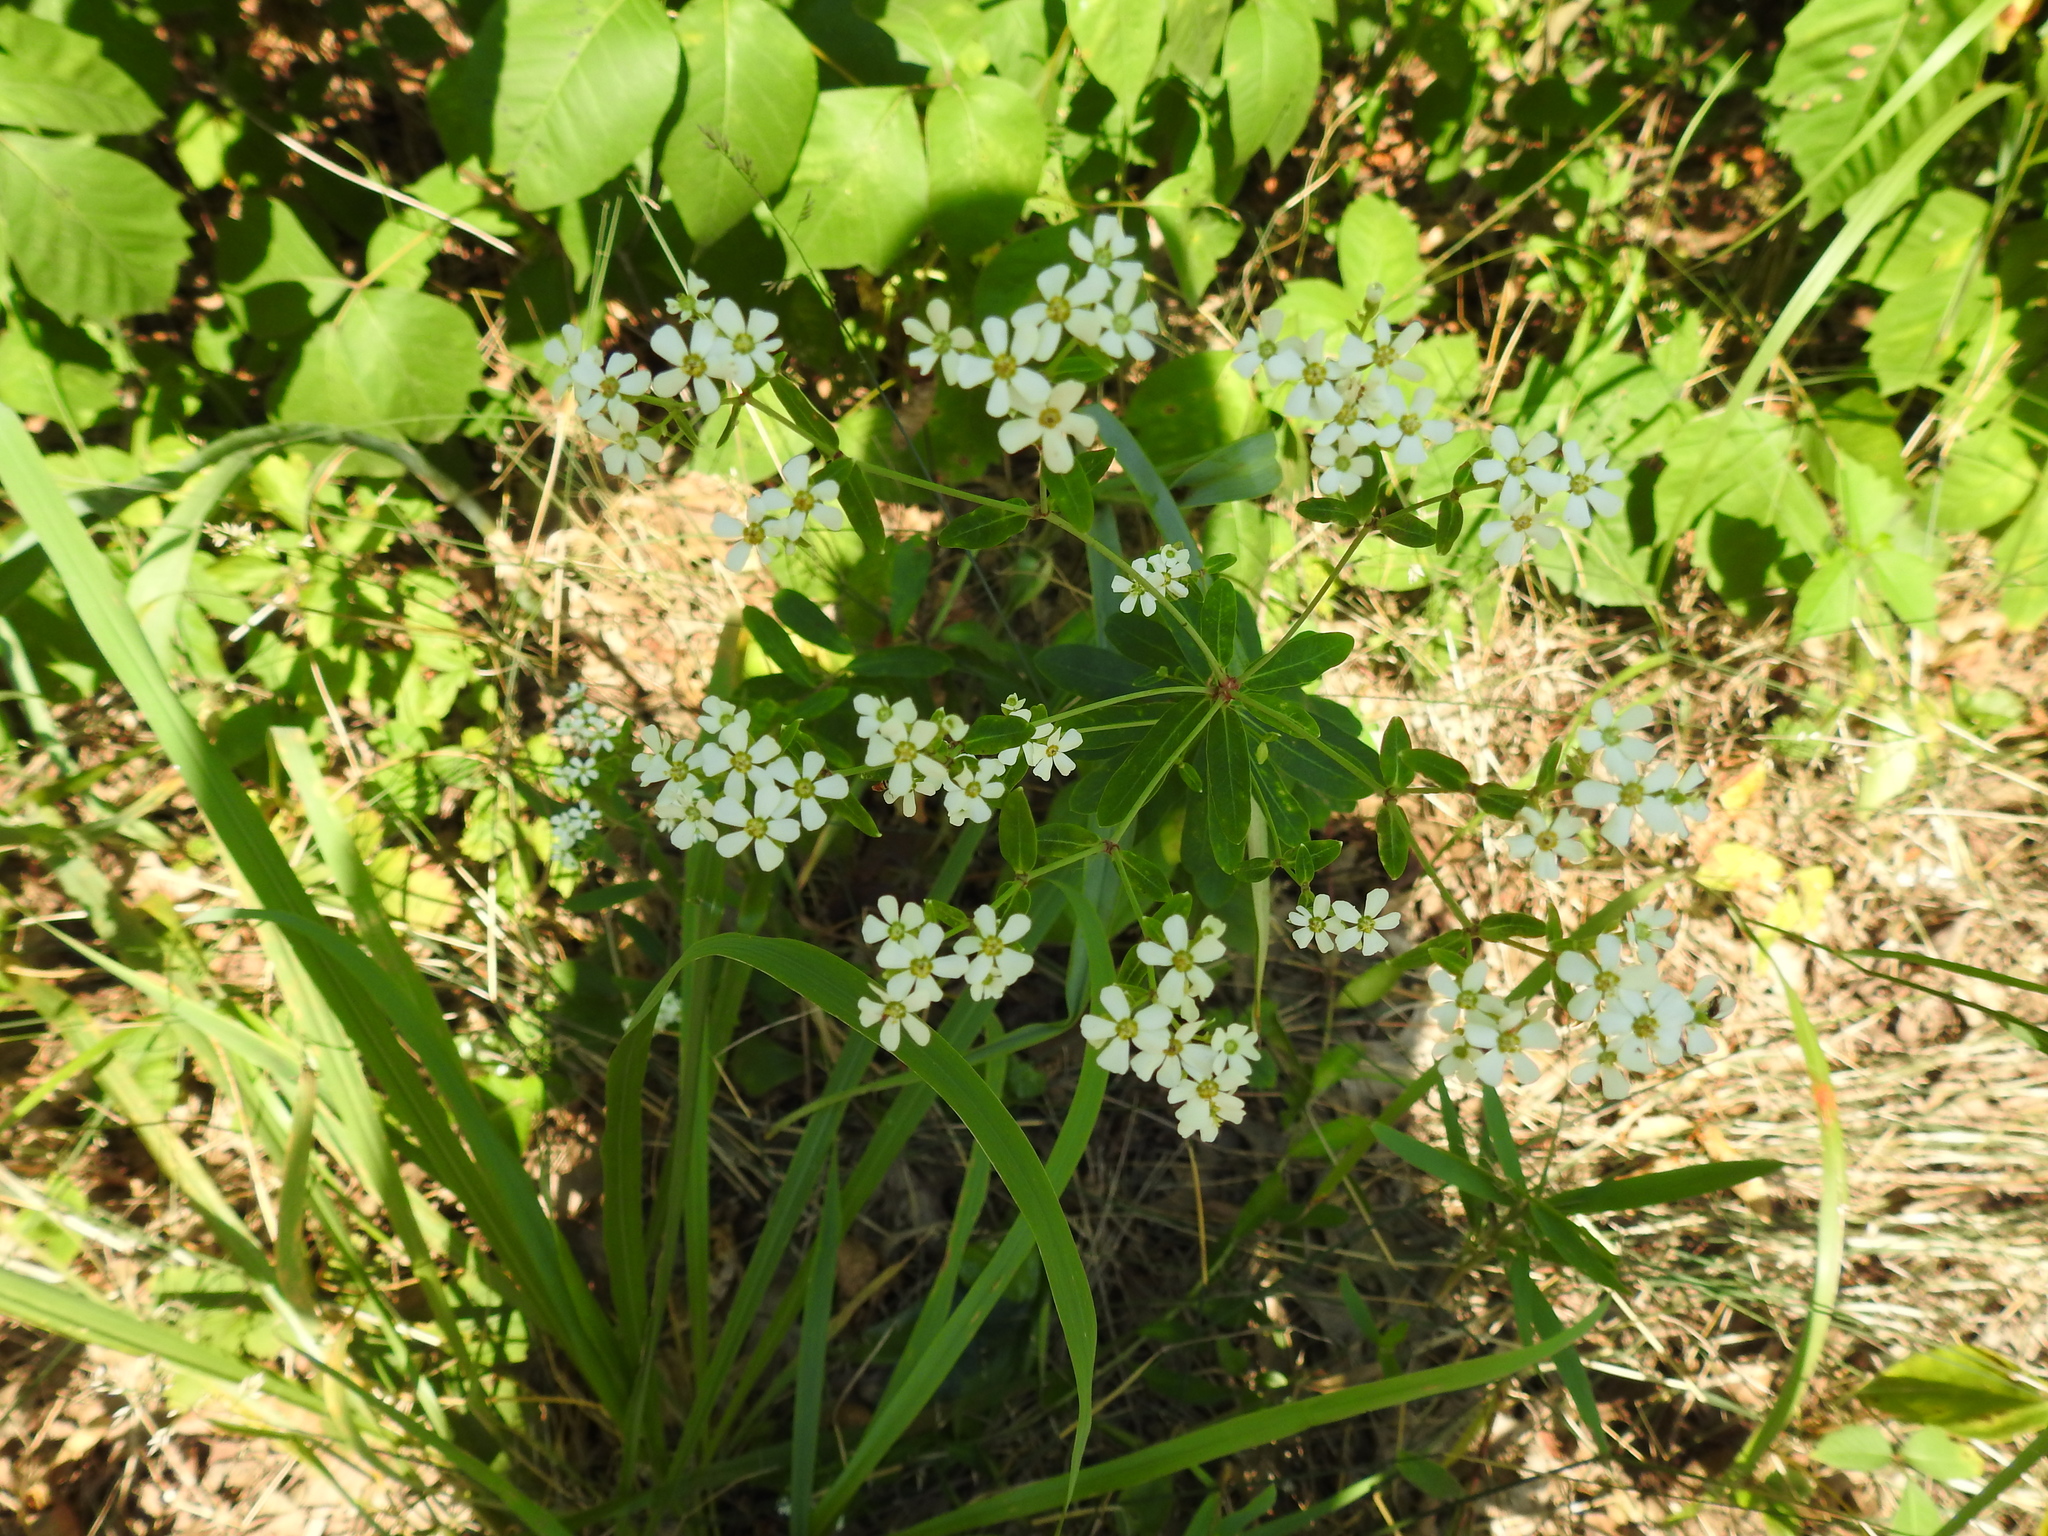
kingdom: Plantae
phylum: Tracheophyta
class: Magnoliopsida
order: Malpighiales
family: Euphorbiaceae
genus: Euphorbia
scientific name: Euphorbia corollata
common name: Flowering spurge
